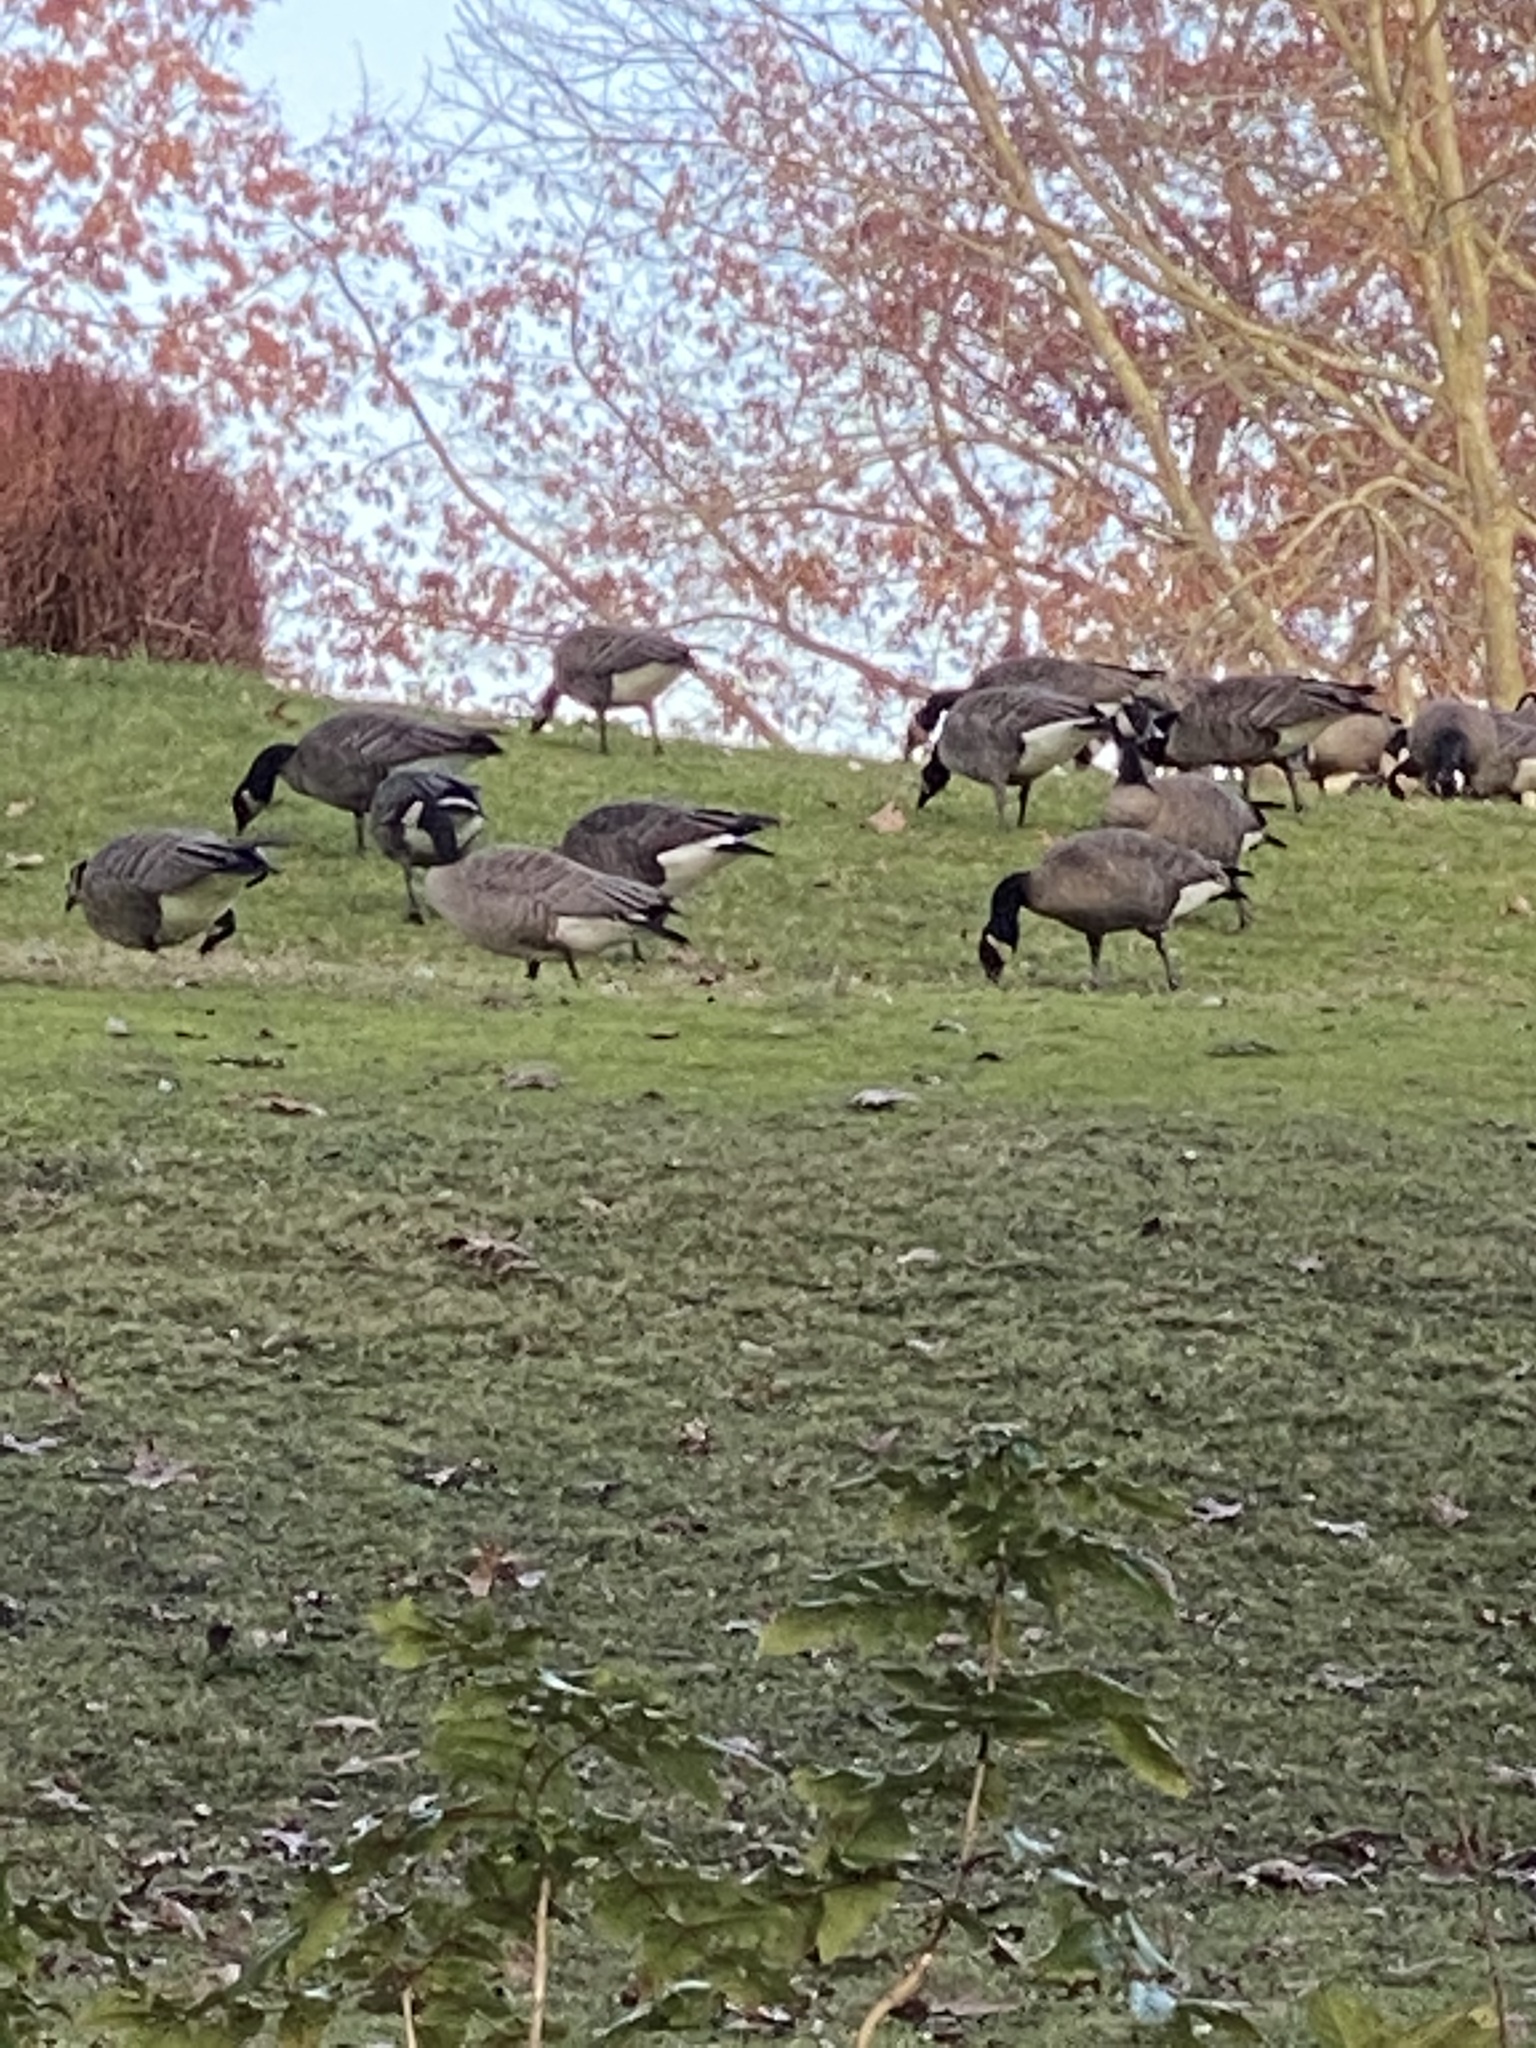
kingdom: Animalia
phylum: Chordata
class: Aves
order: Anseriformes
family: Anatidae
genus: Branta
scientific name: Branta hutchinsii
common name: Cackling goose
